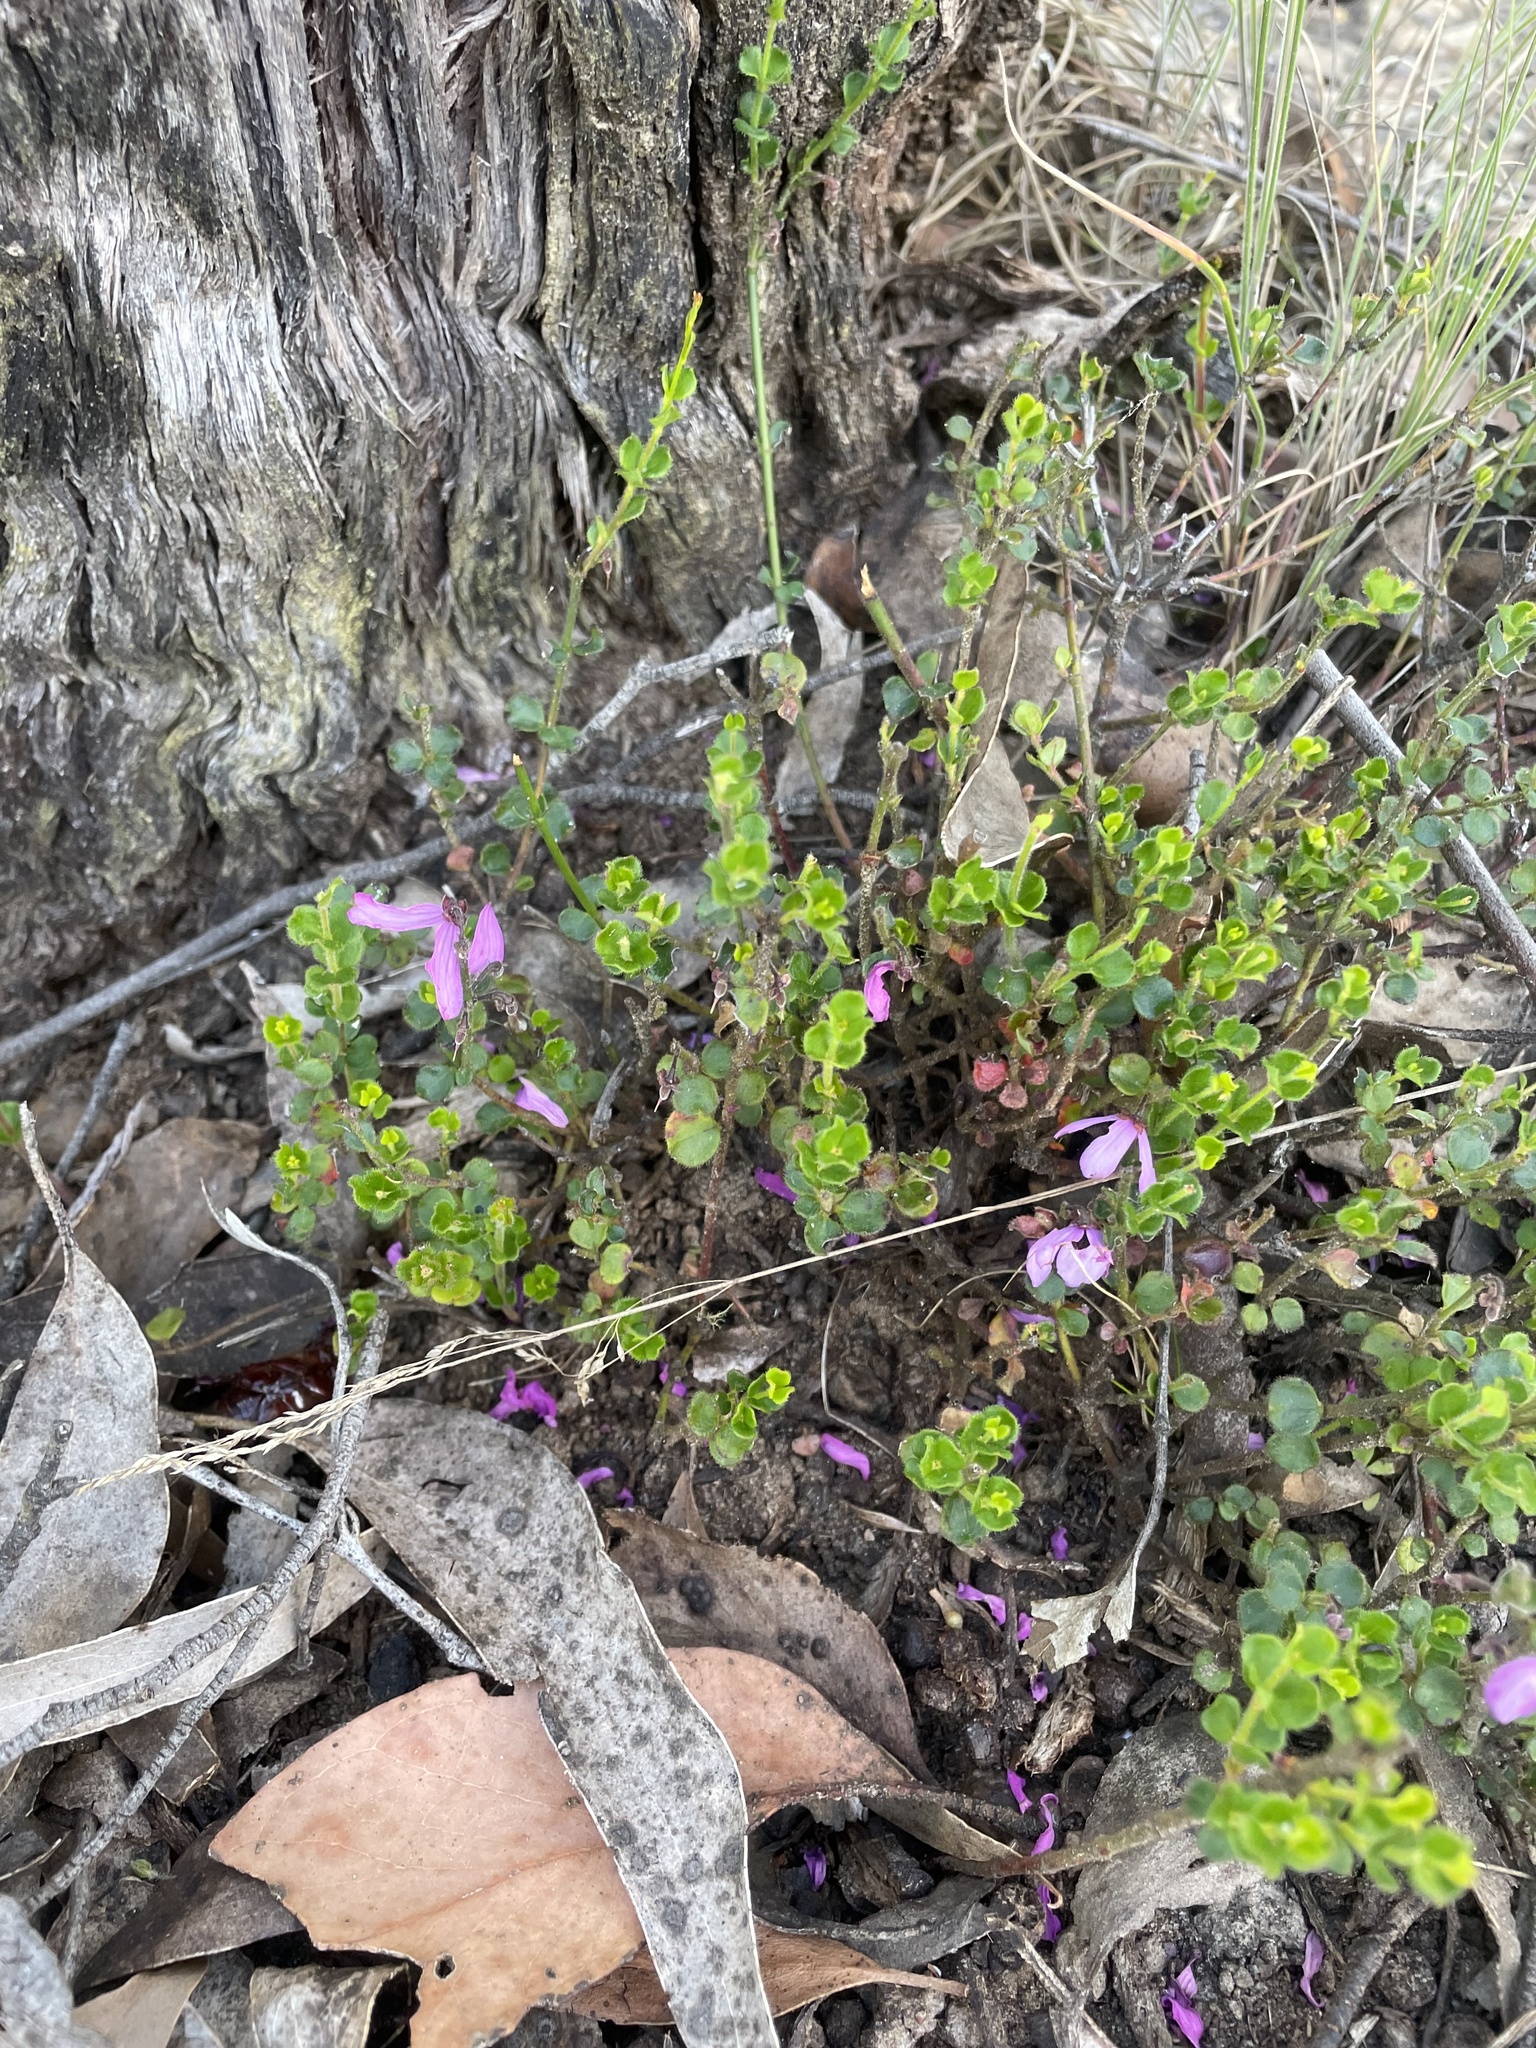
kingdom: Plantae
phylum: Tracheophyta
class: Magnoliopsida
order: Oxalidales
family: Elaeocarpaceae
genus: Tetratheca
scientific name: Tetratheca ciliata
